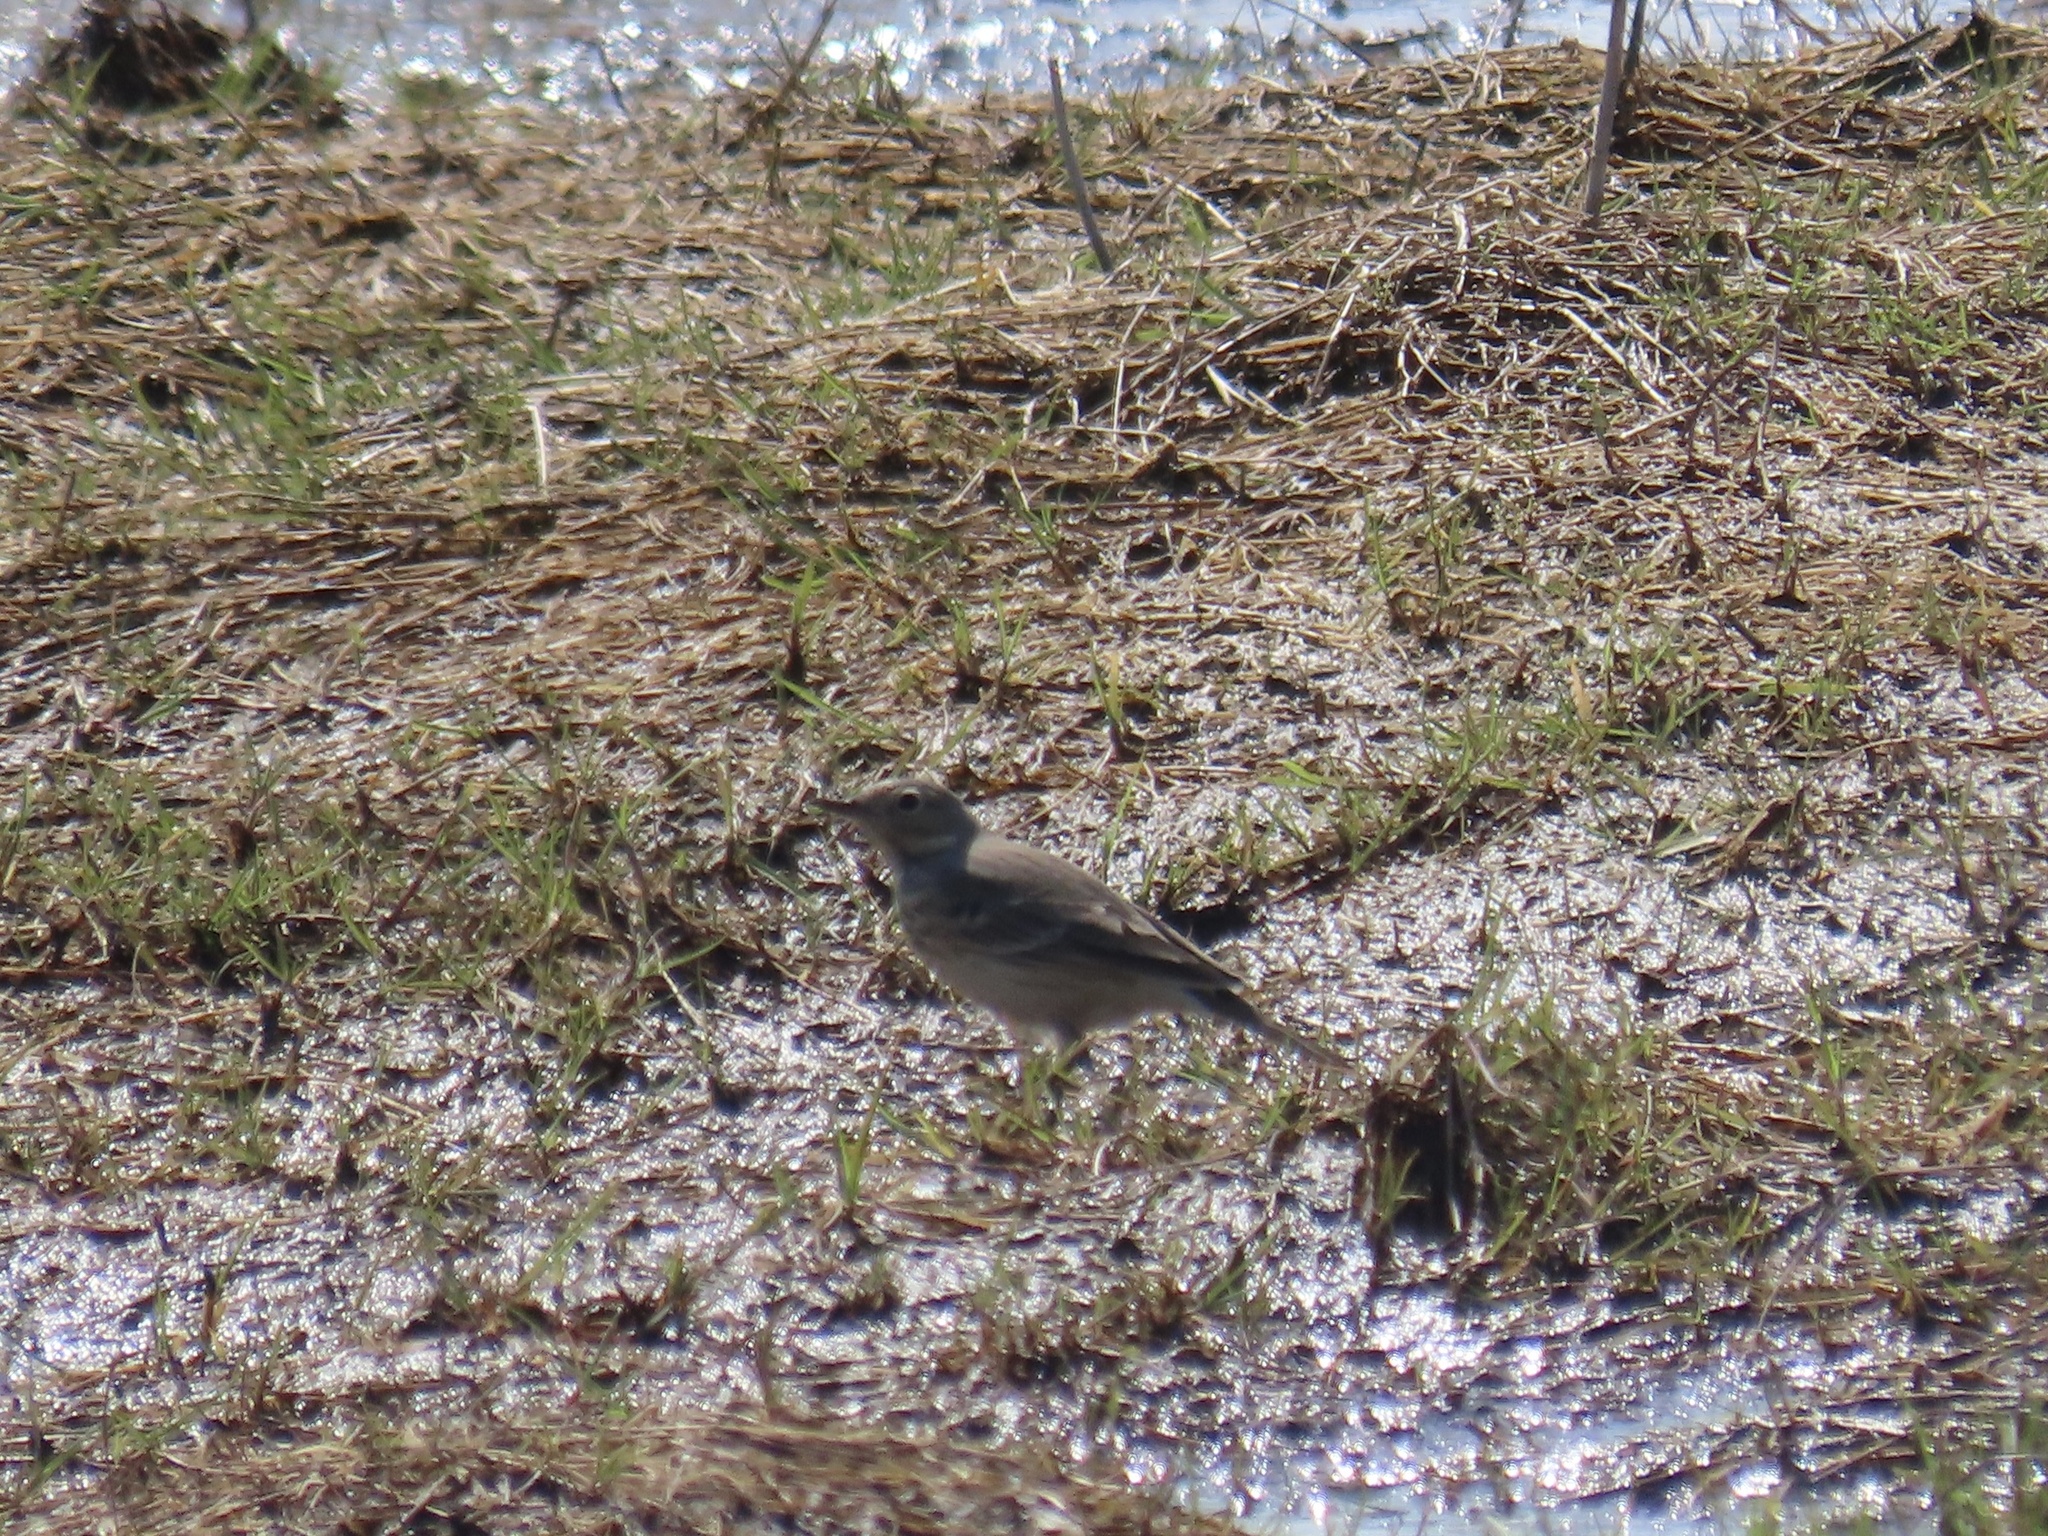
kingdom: Animalia
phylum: Chordata
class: Aves
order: Passeriformes
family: Motacillidae
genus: Anthus
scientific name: Anthus rubescens
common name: Buff-bellied pipit
